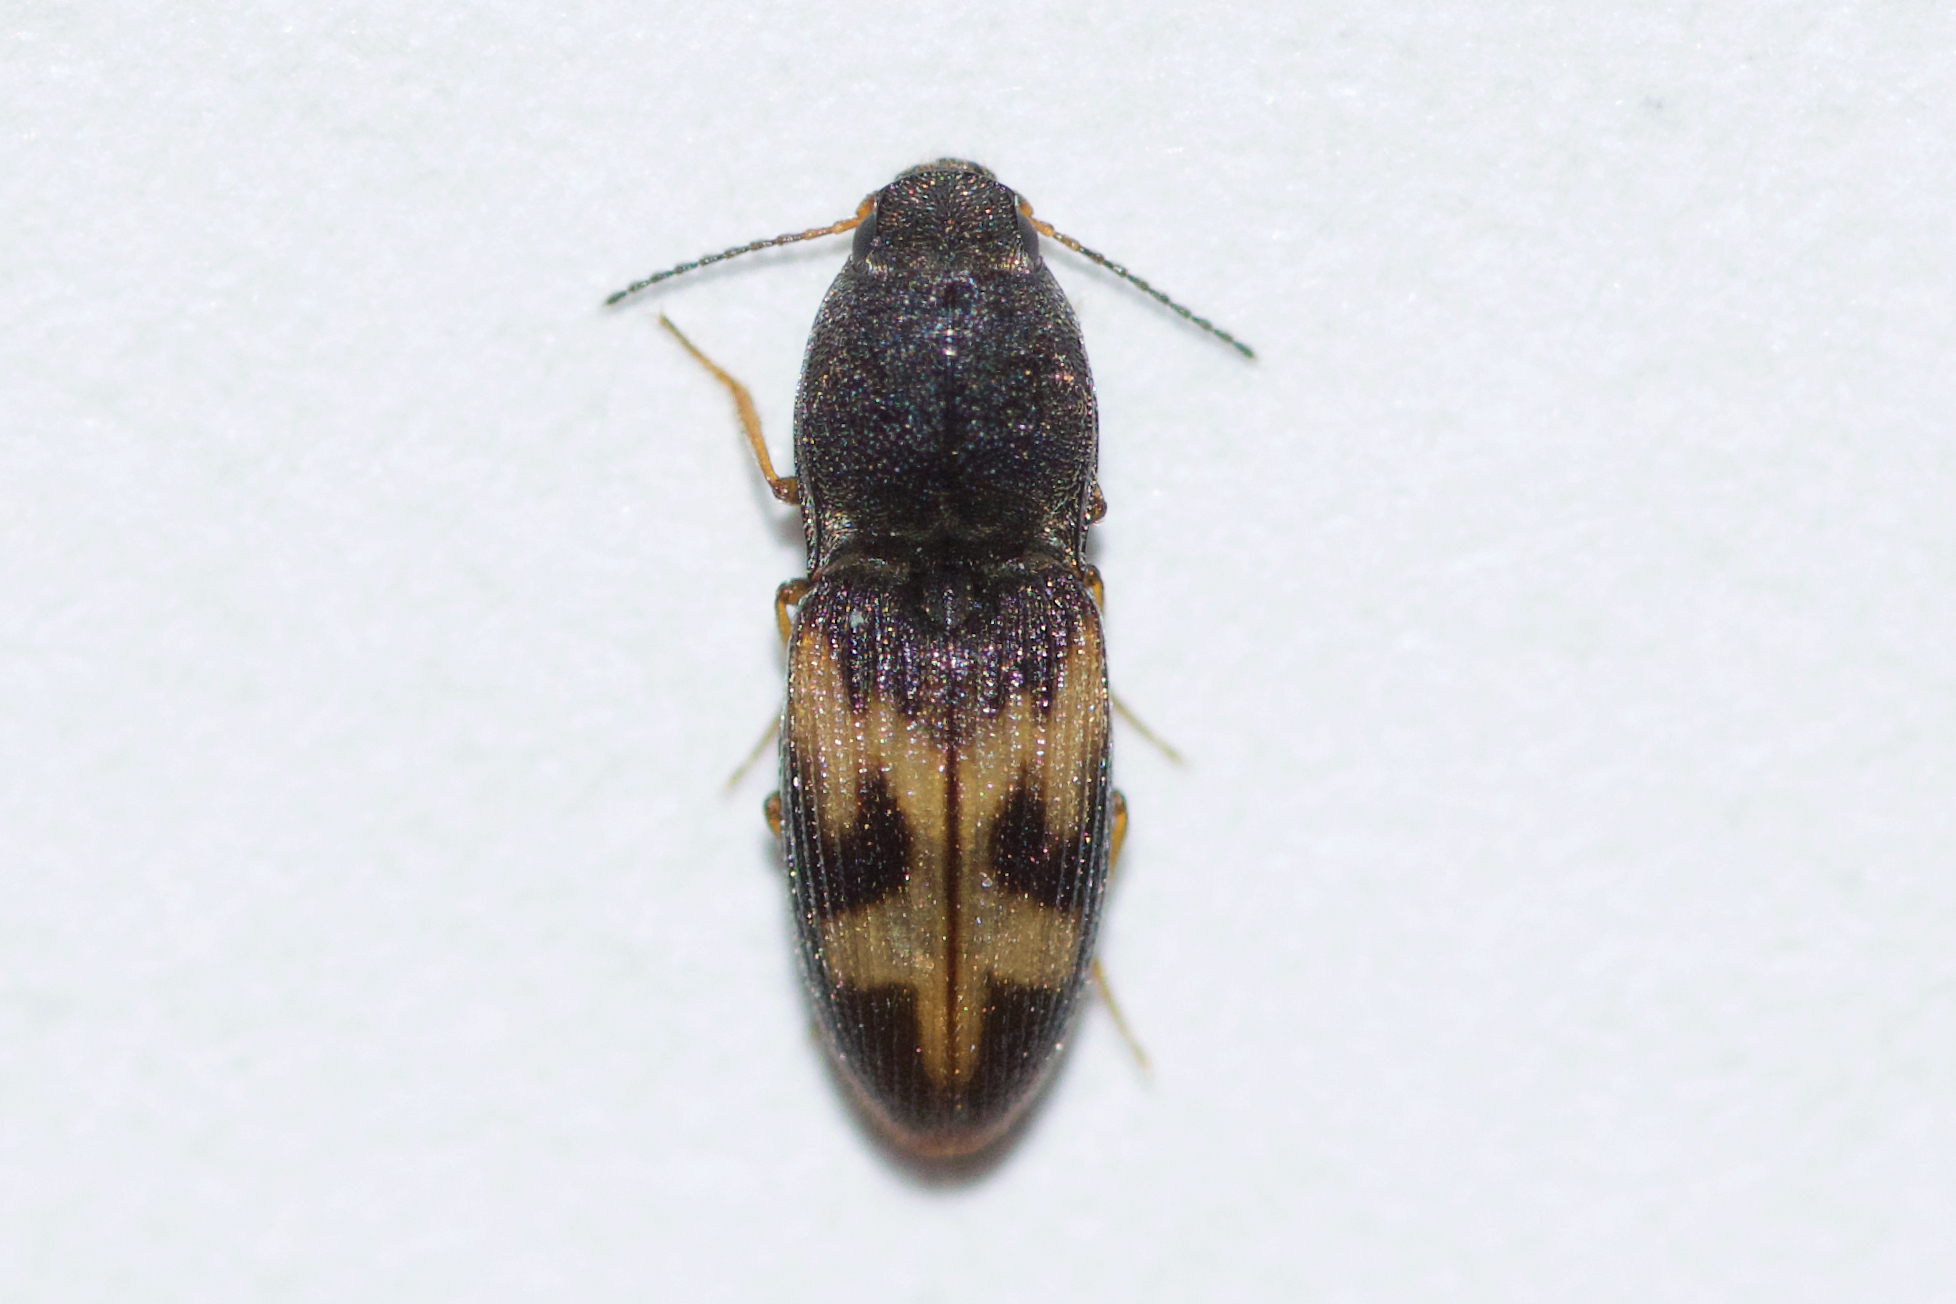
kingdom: Animalia
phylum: Arthropoda
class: Insecta
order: Coleoptera
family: Elateridae
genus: Negastrius
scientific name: Negastrius arnetti
